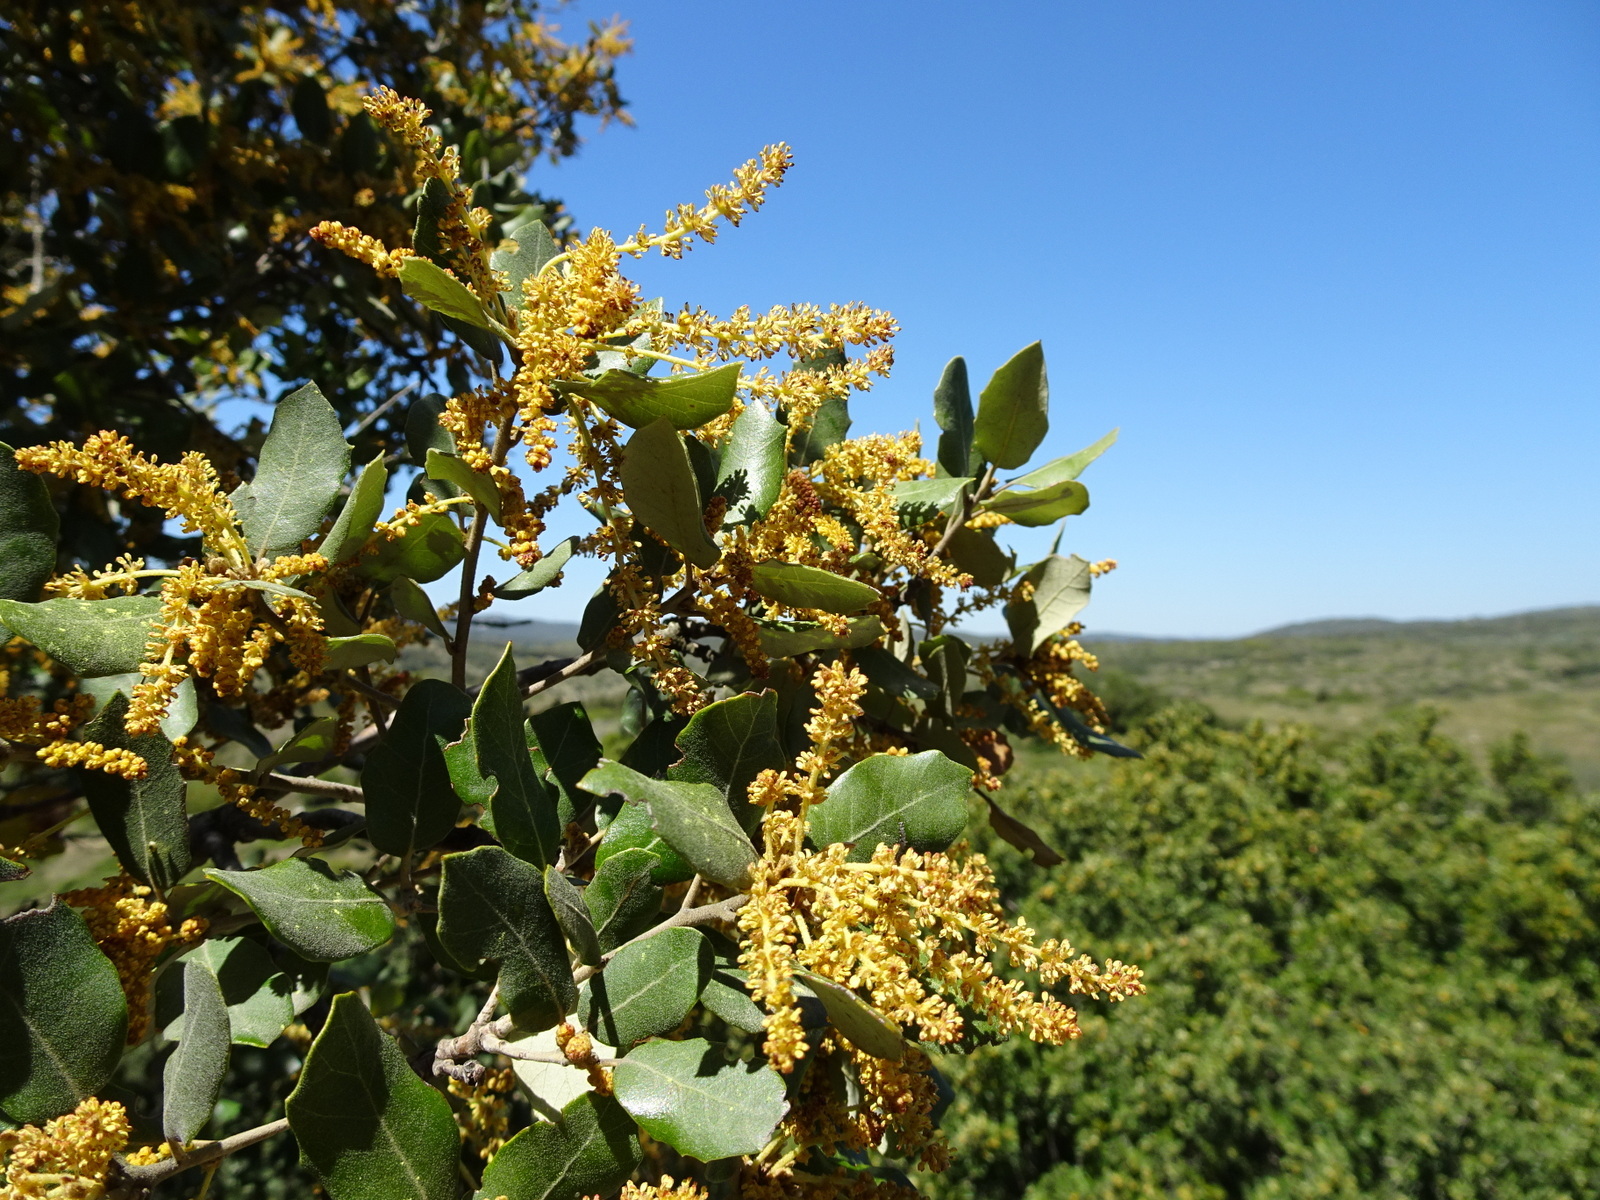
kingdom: Plantae
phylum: Tracheophyta
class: Magnoliopsida
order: Fagales
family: Fagaceae
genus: Quercus
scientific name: Quercus ilex
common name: Evergreen oak
